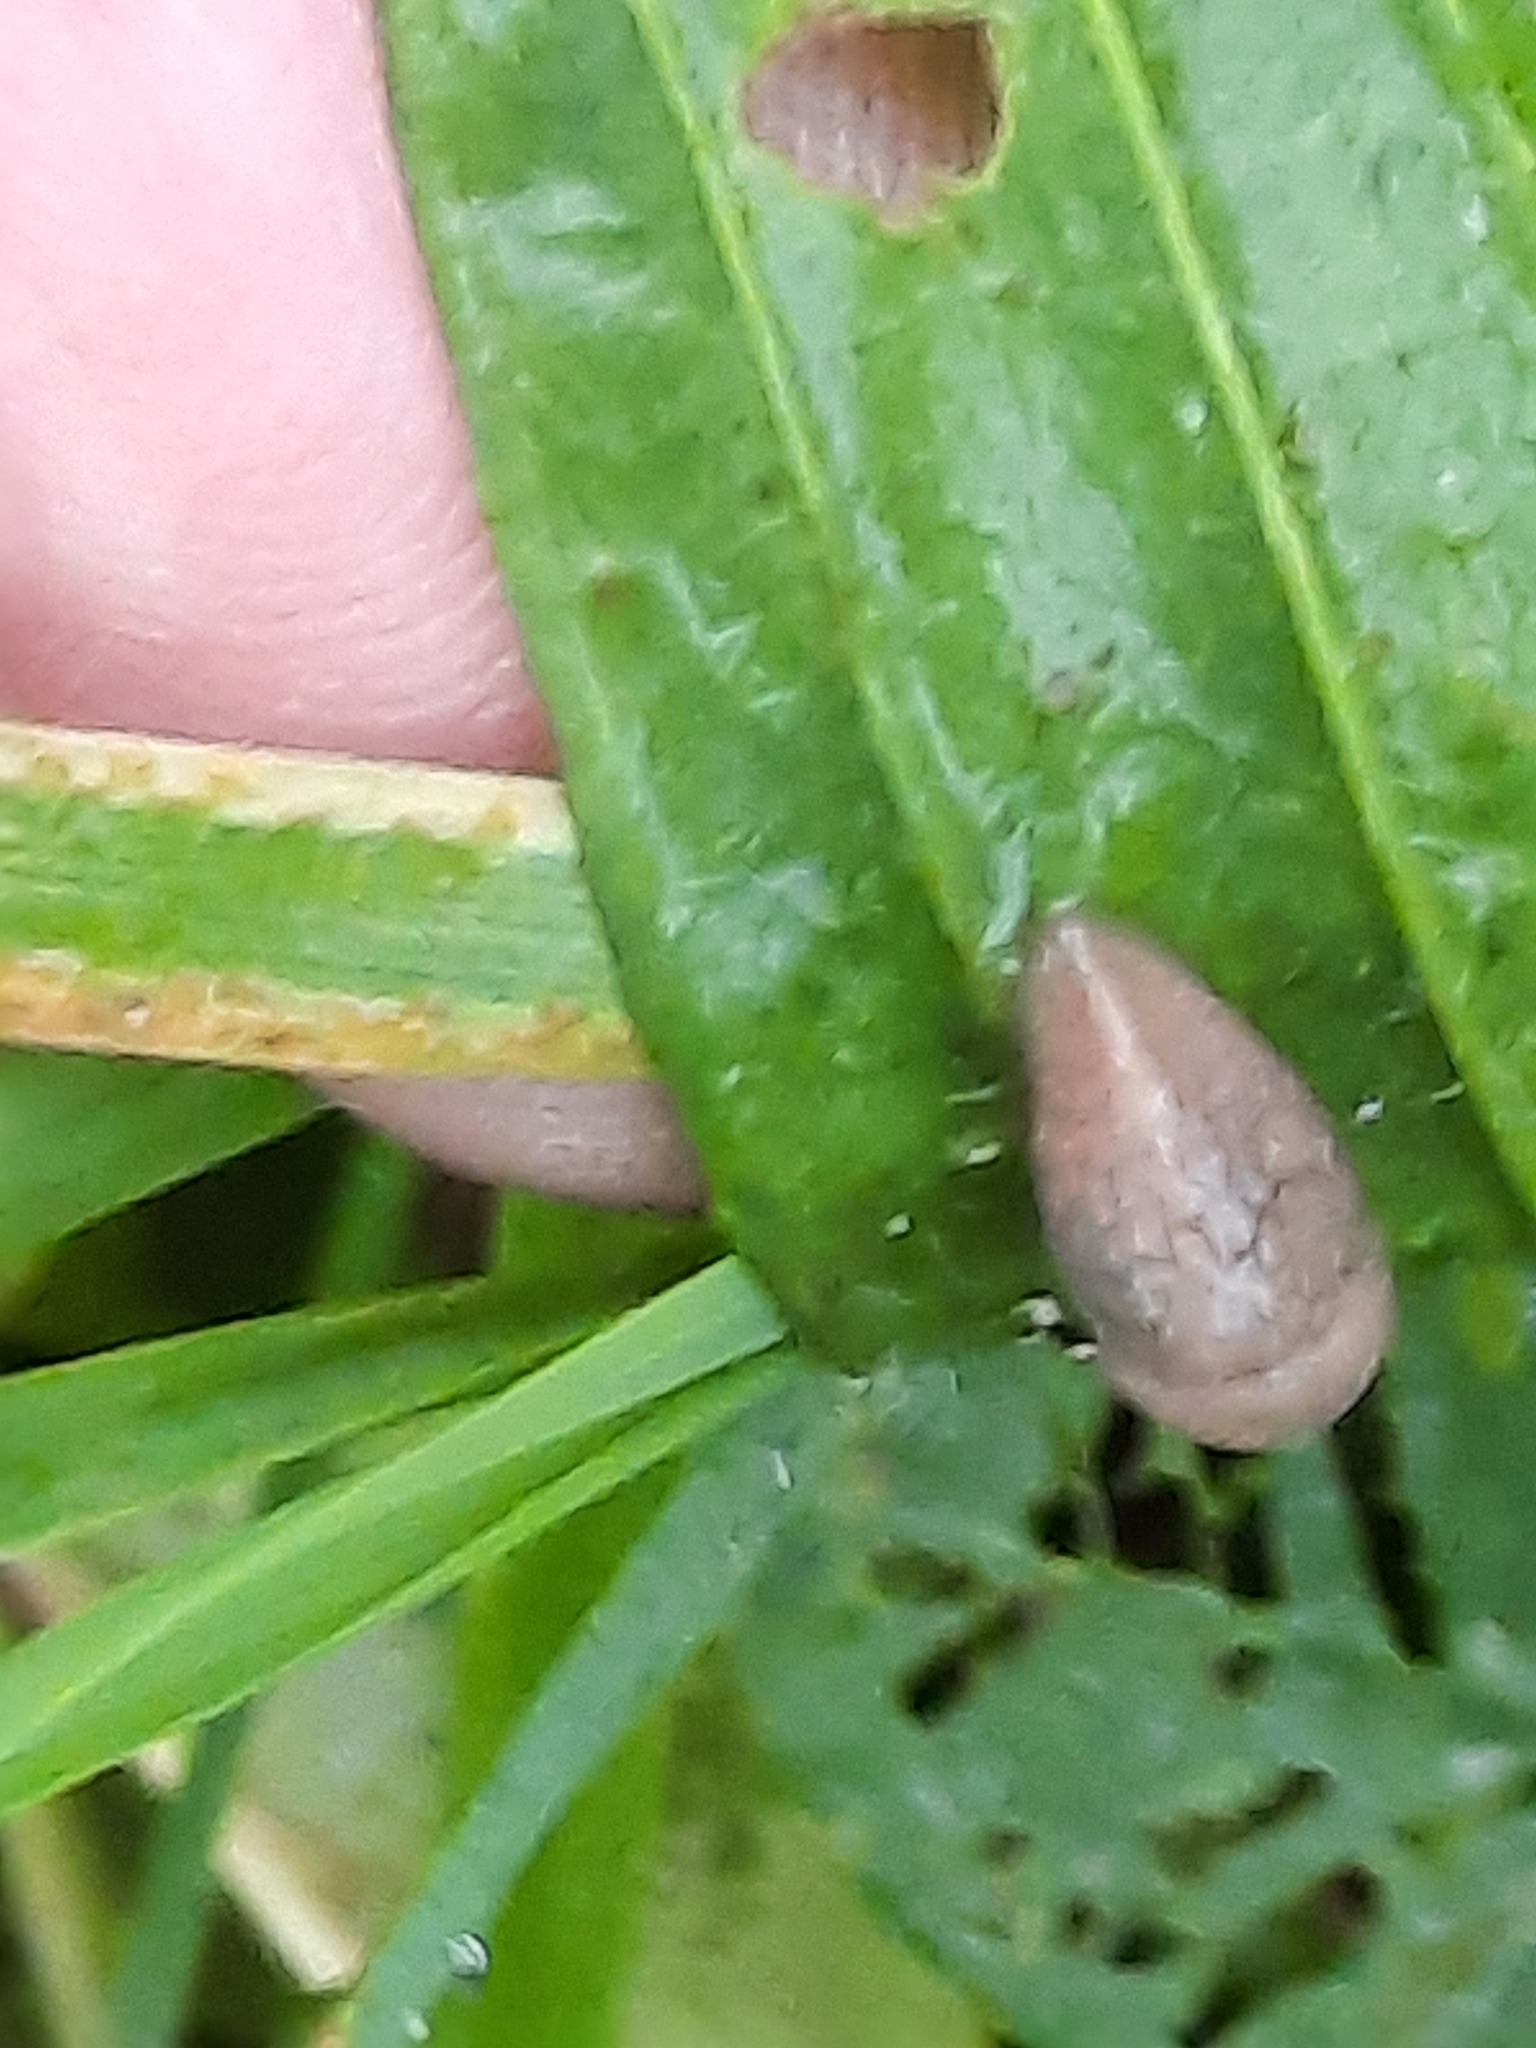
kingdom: Animalia
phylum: Mollusca
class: Gastropoda
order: Stylommatophora
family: Agriolimacidae
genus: Deroceras
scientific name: Deroceras reticulatum
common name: Gray field slug
